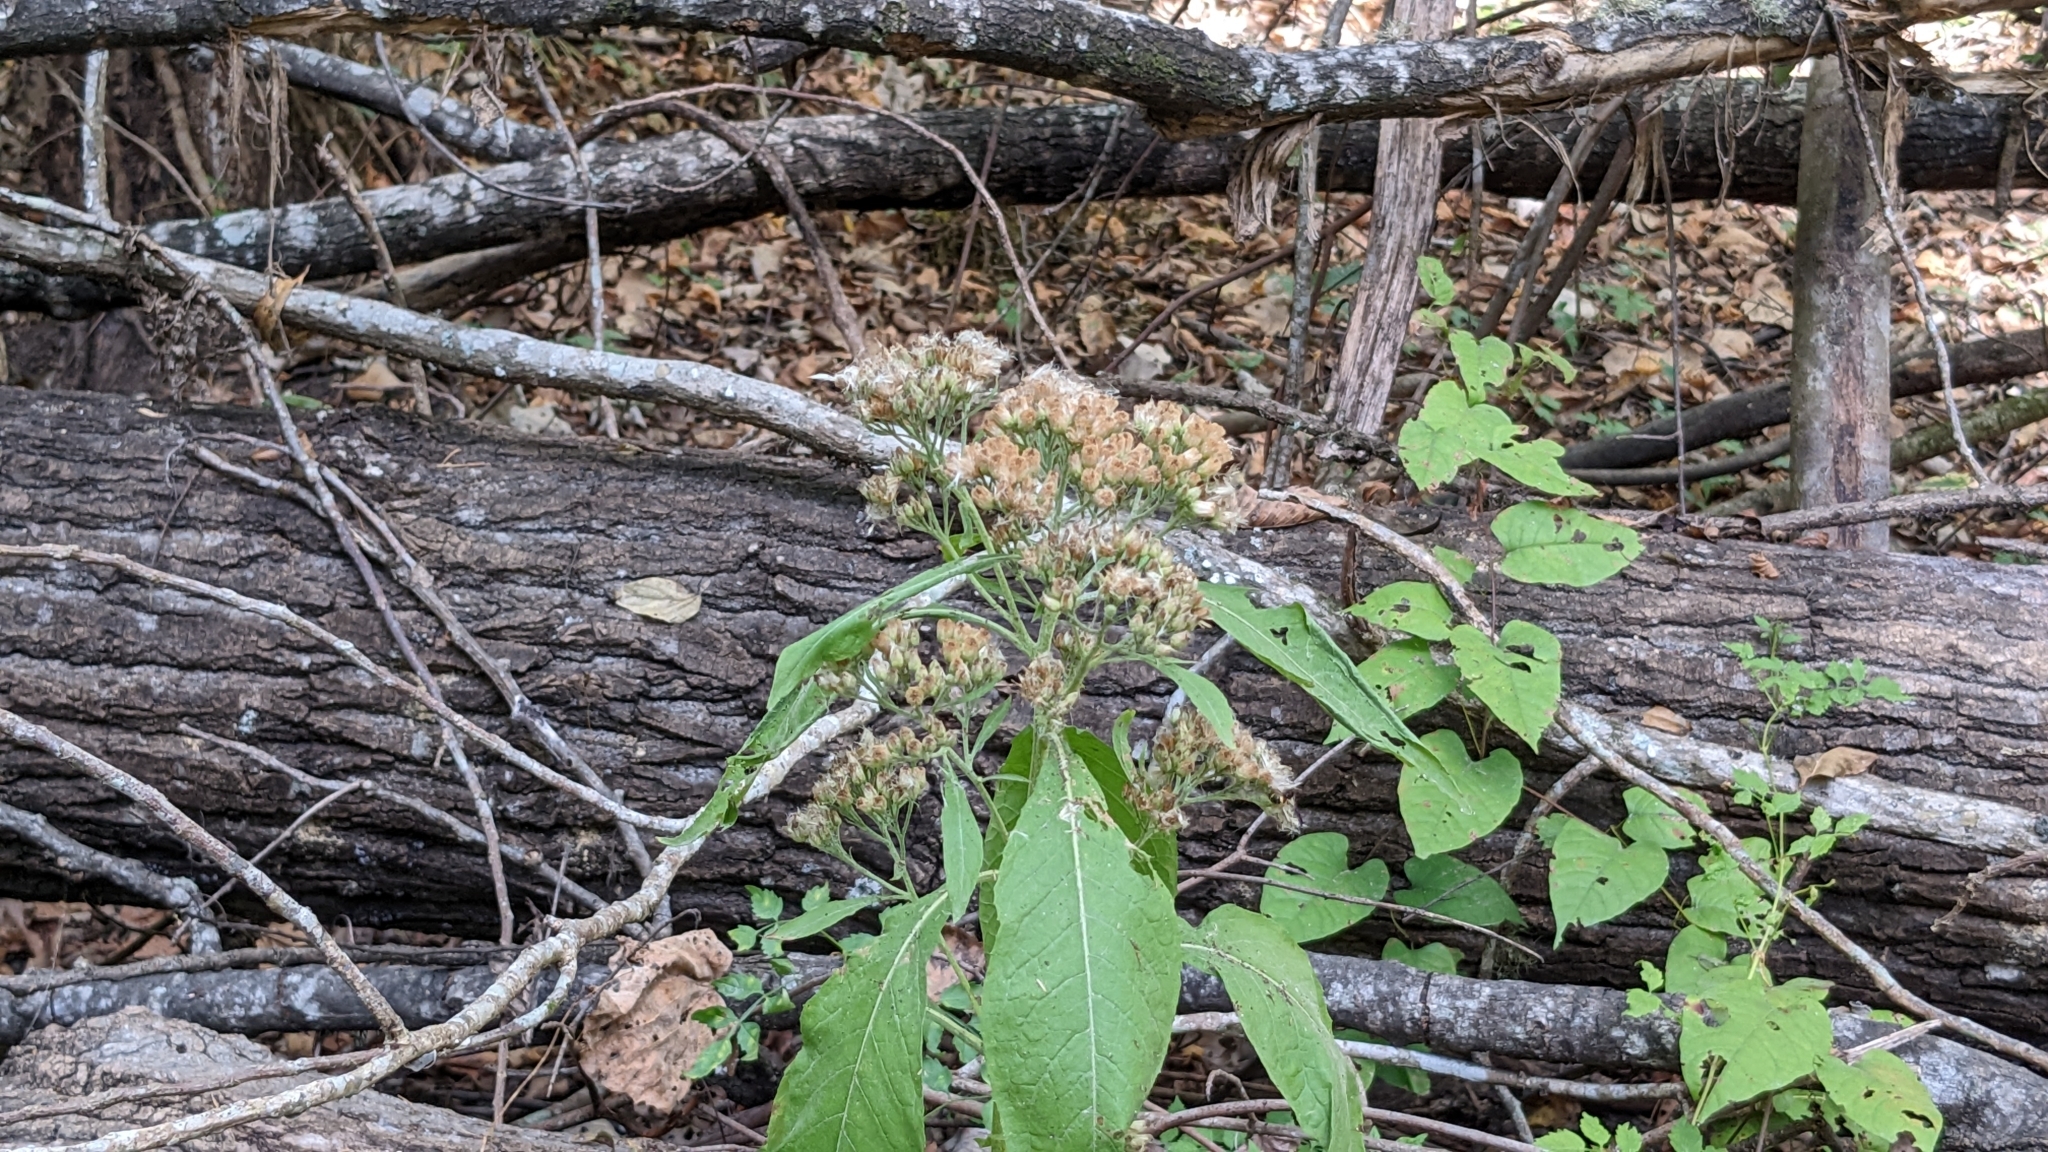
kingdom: Plantae
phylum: Tracheophyta
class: Magnoliopsida
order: Asterales
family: Asteraceae
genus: Verbesina
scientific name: Verbesina virginica
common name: Frostweed
